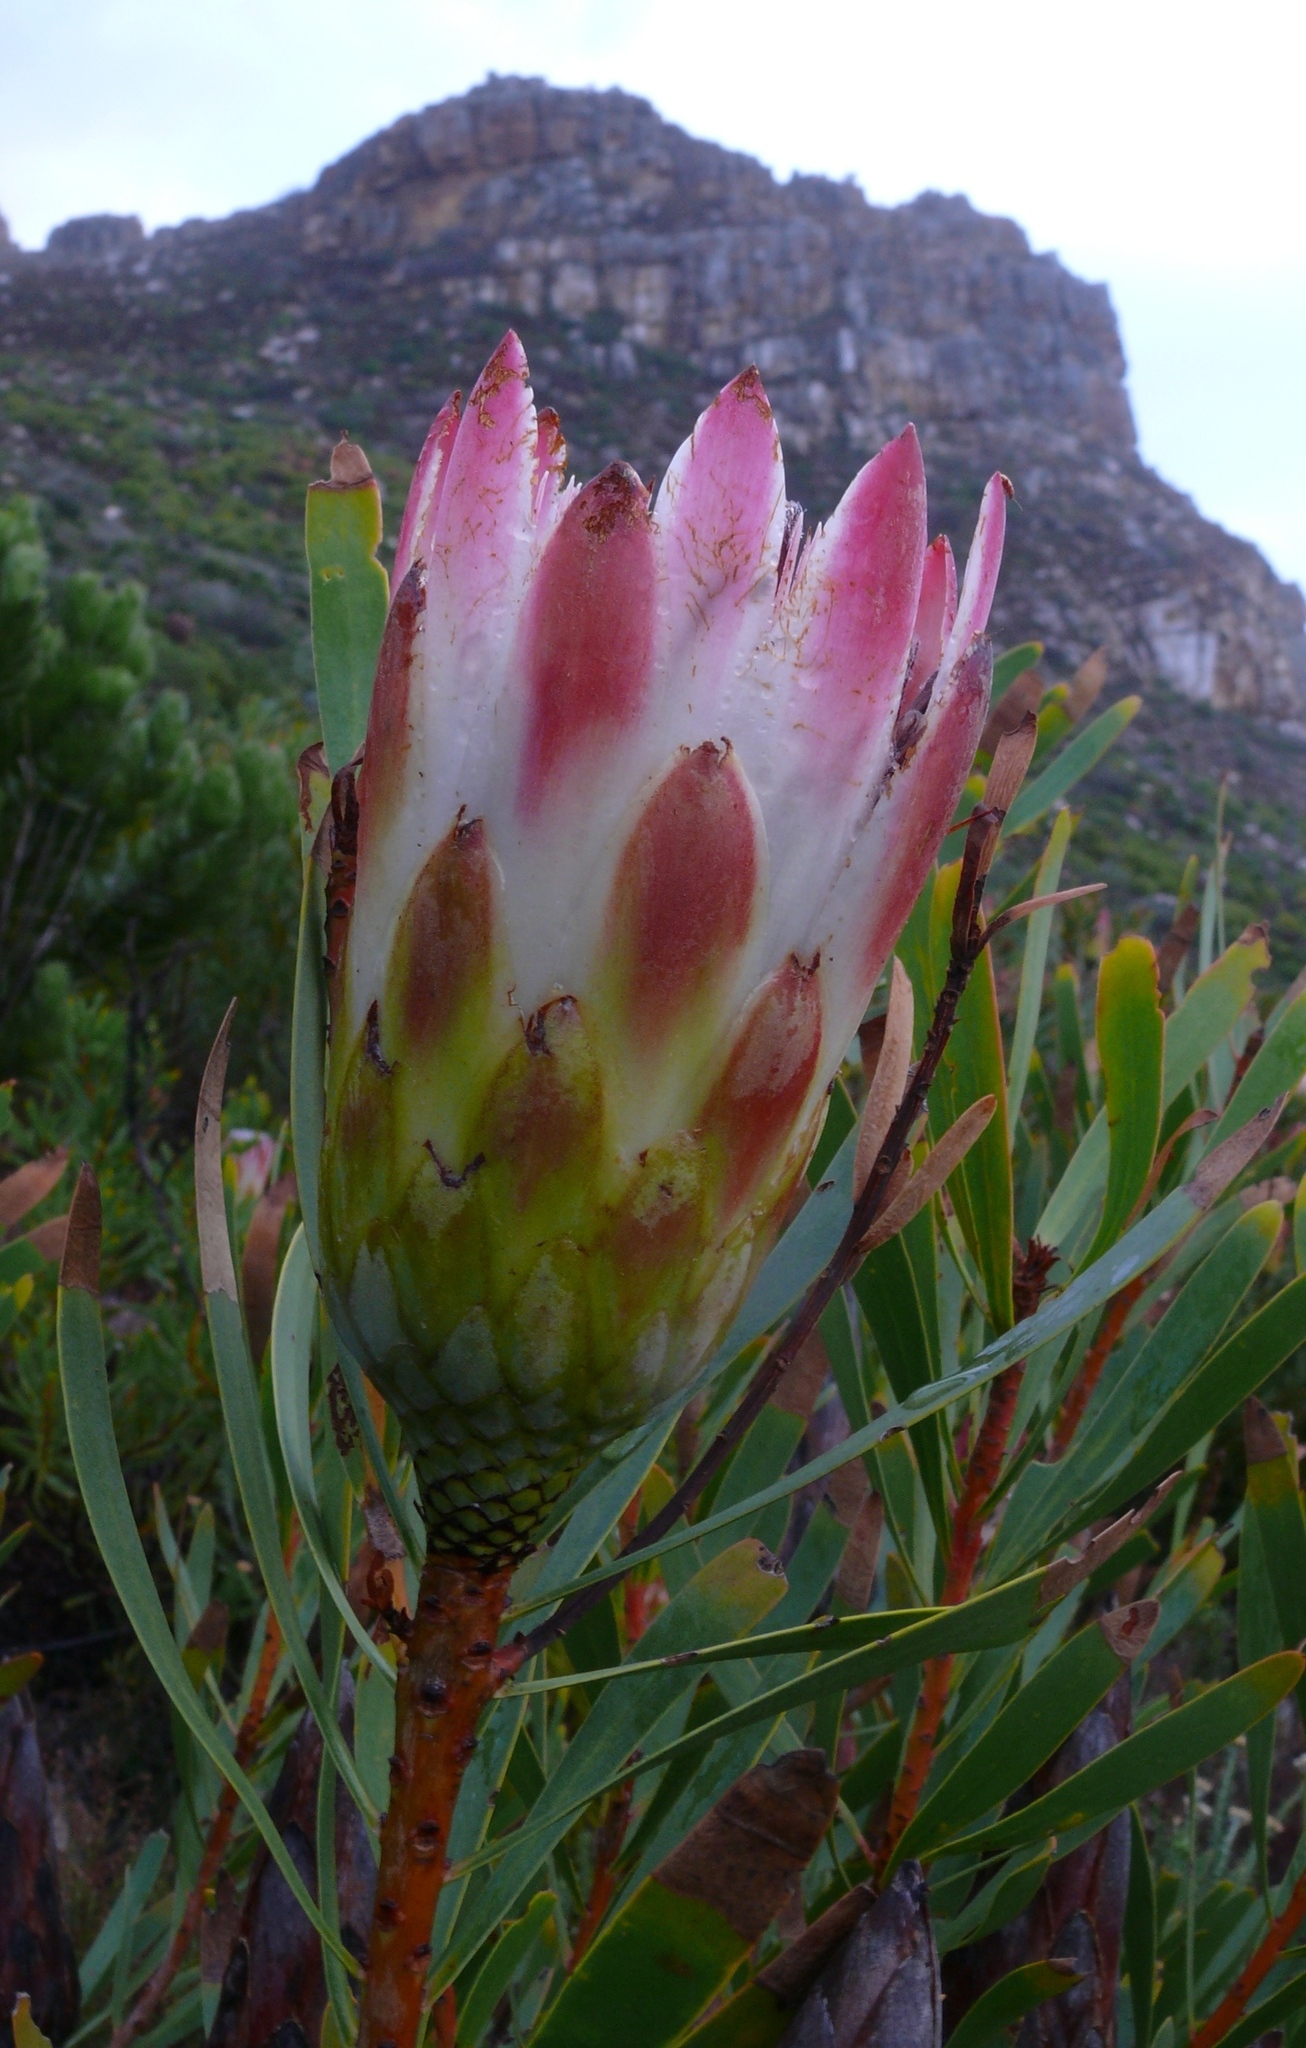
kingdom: Plantae
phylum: Tracheophyta
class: Magnoliopsida
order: Proteales
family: Proteaceae
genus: Protea
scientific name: Protea repens
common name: Sugarbush
